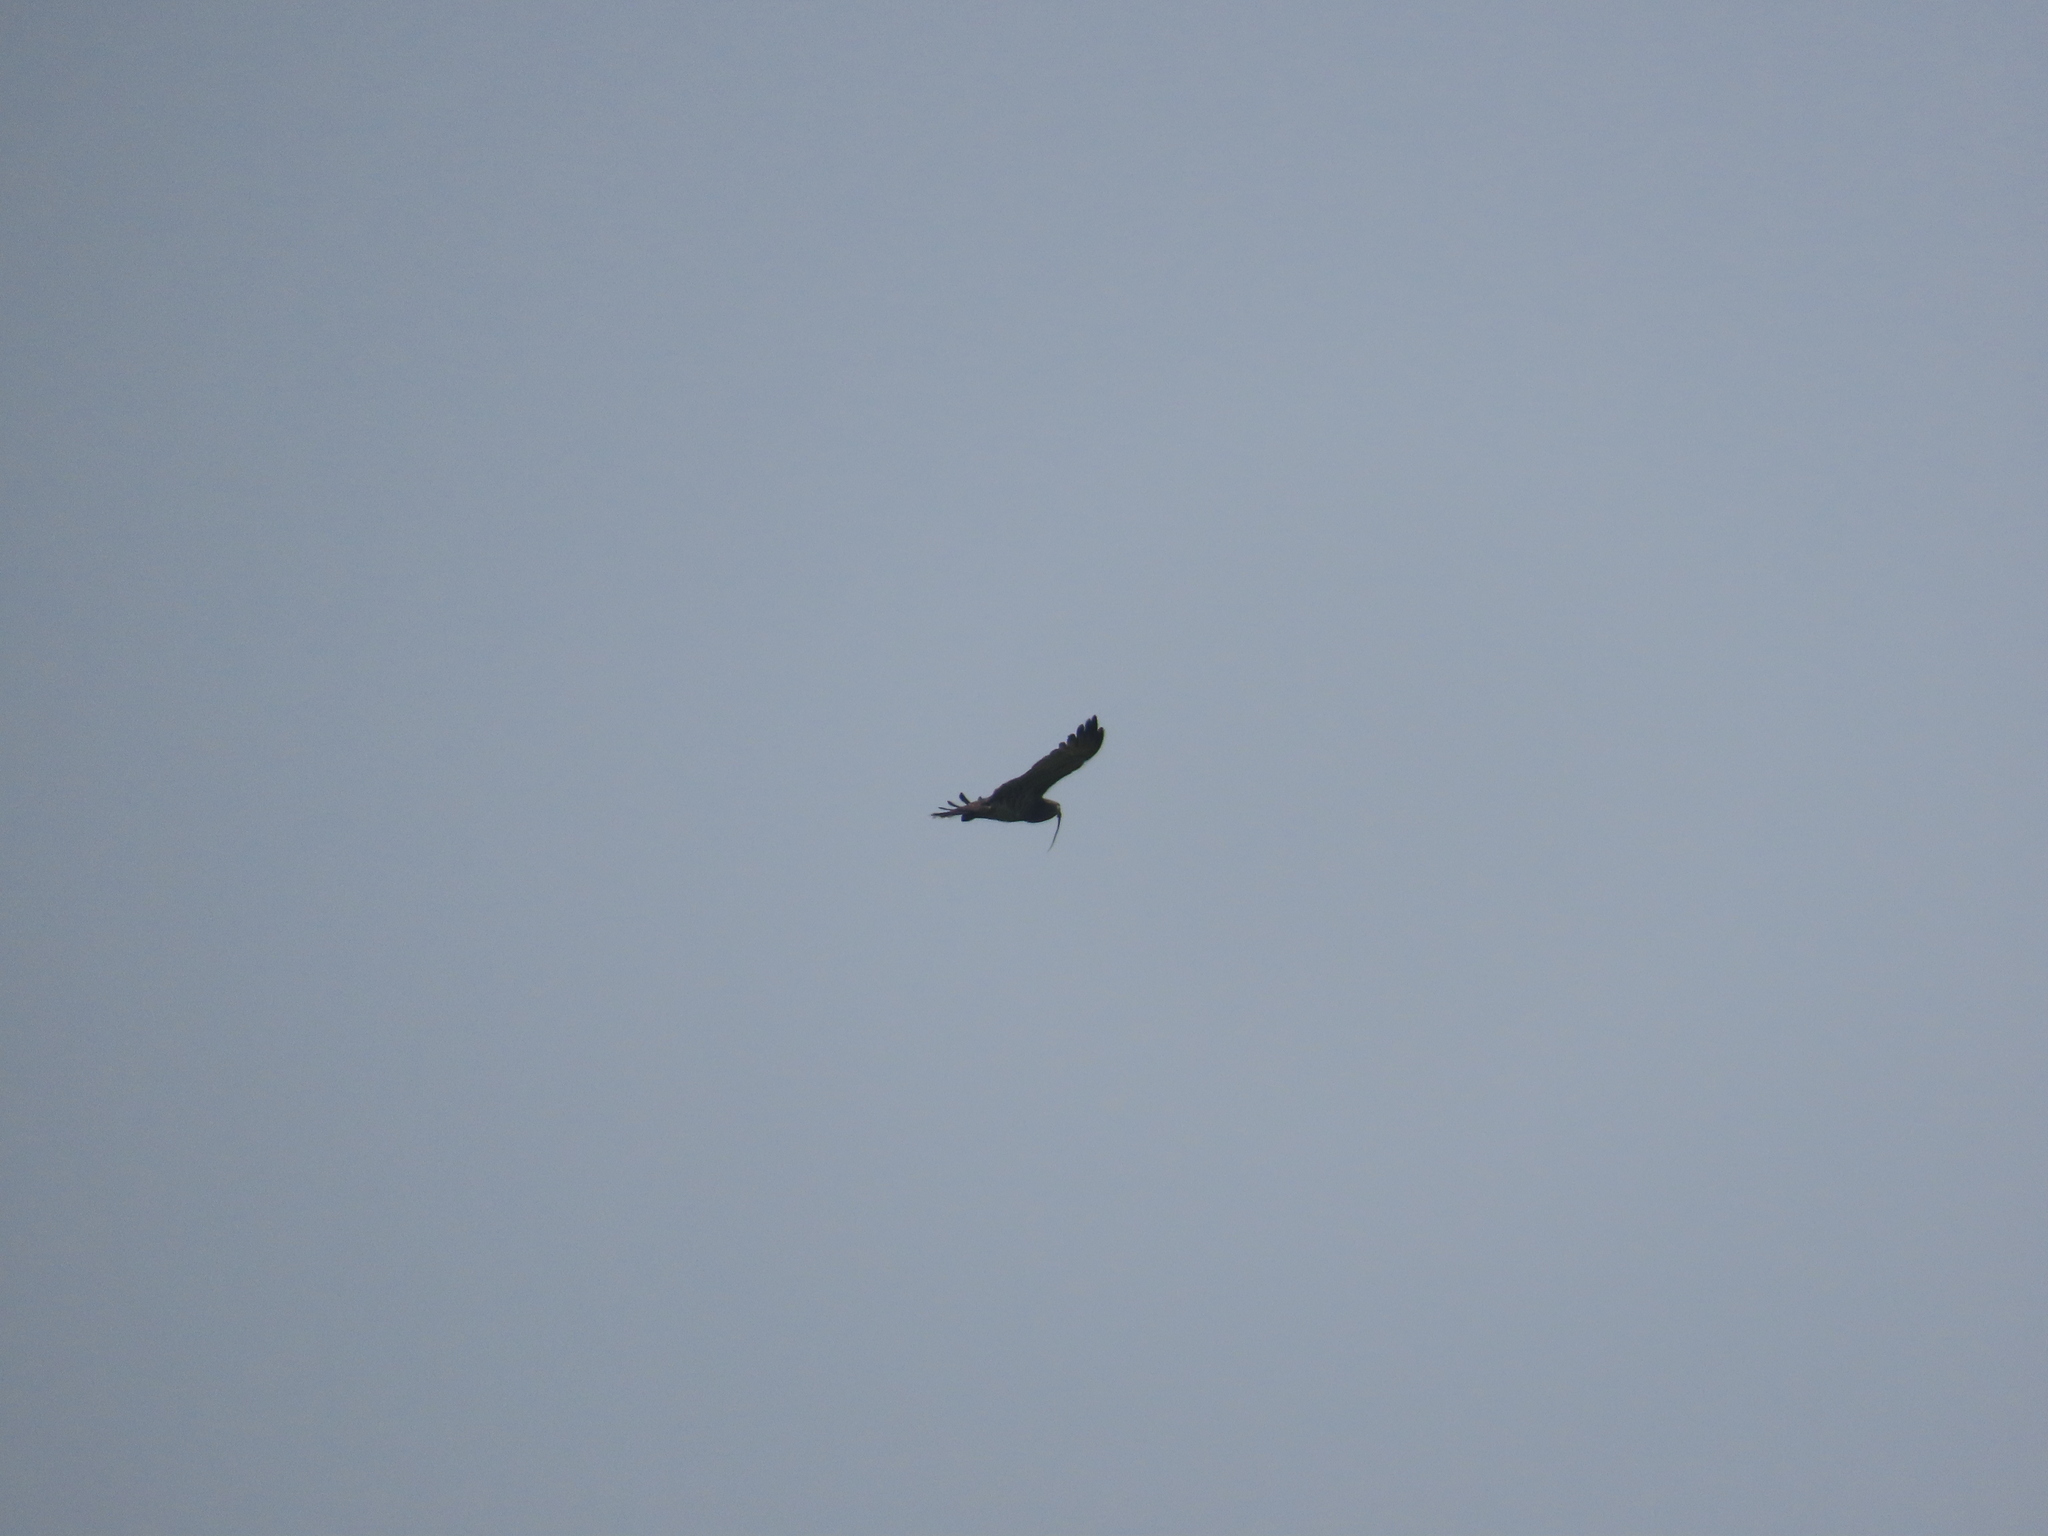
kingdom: Animalia
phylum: Chordata
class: Aves
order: Accipitriformes
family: Accipitridae
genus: Circaetus
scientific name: Circaetus gallicus
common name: Short-toed snake eagle
